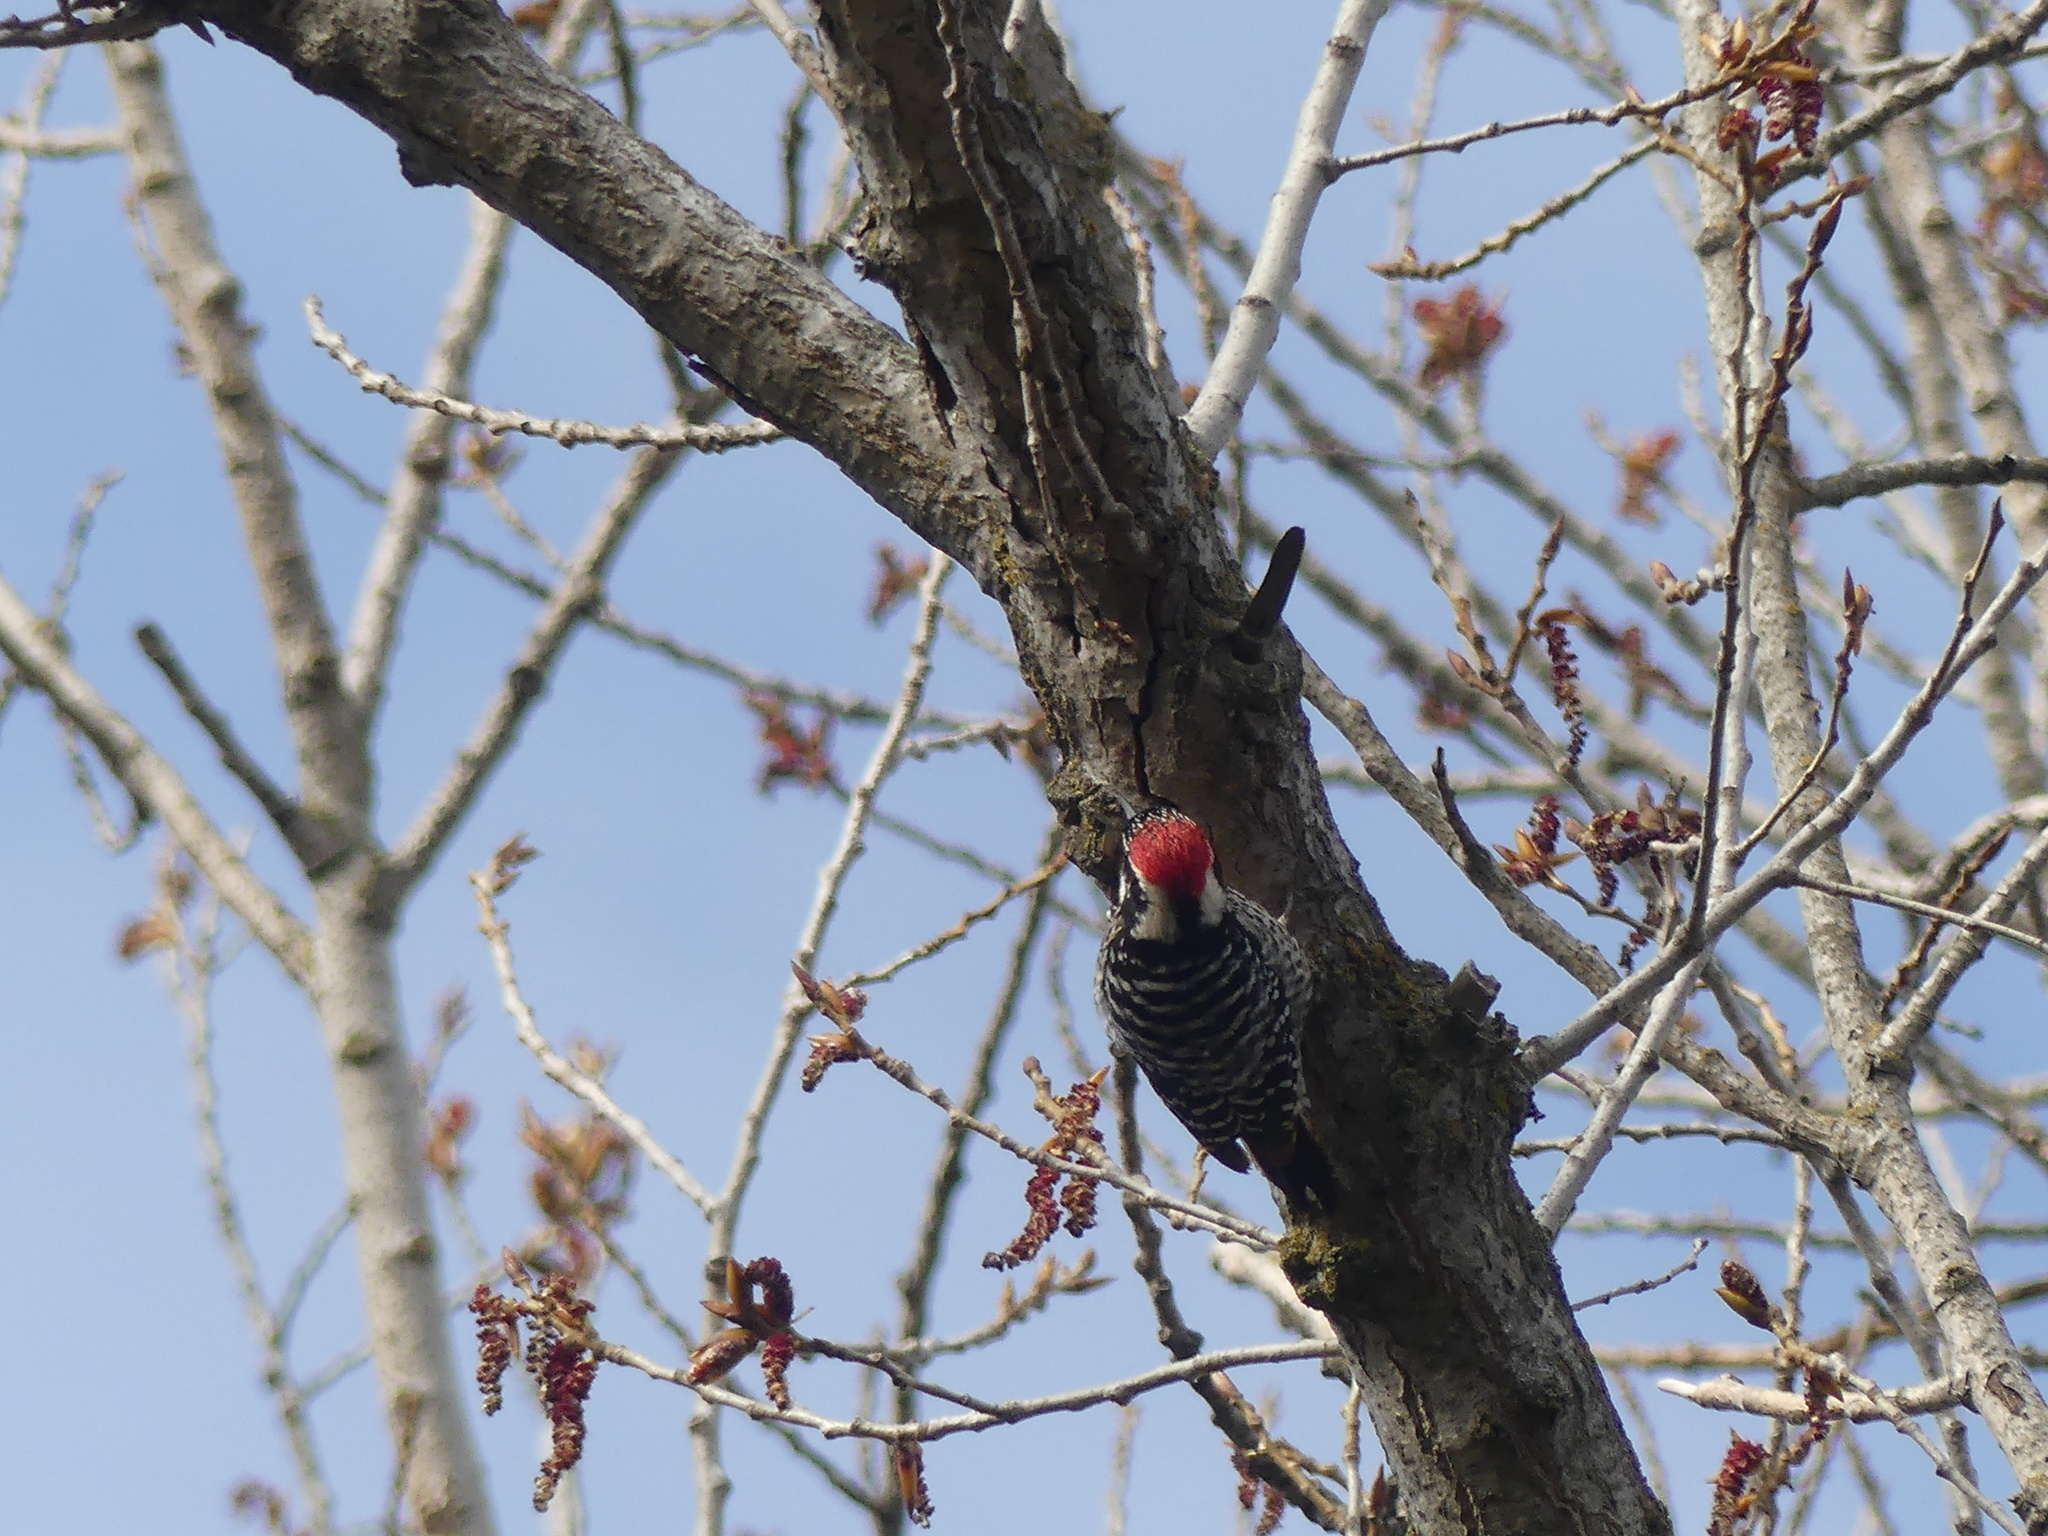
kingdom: Animalia
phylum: Chordata
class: Aves
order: Piciformes
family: Picidae
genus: Dryobates
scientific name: Dryobates nuttallii
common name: Nuttall's woodpecker
